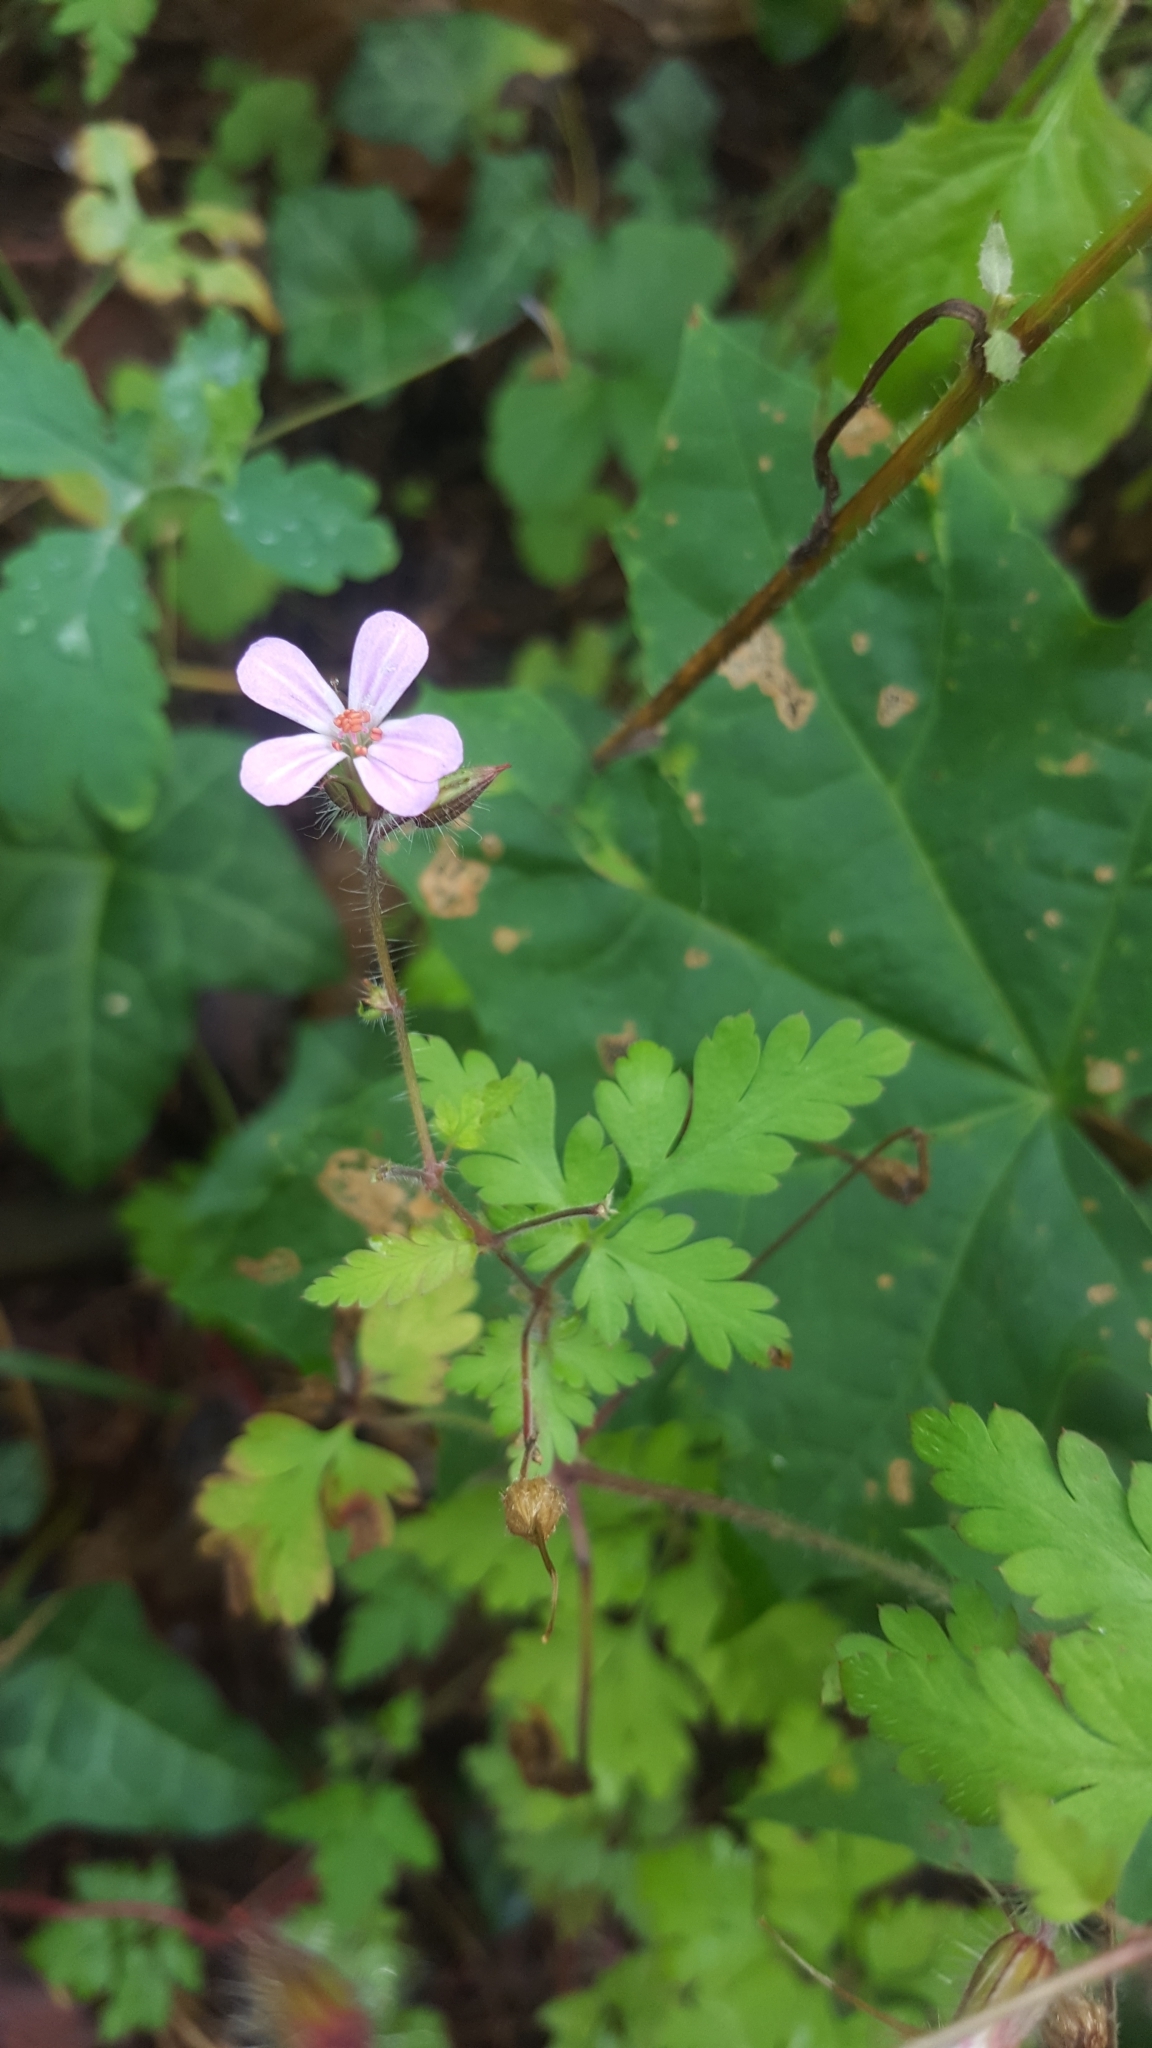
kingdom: Plantae
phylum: Tracheophyta
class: Magnoliopsida
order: Geraniales
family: Geraniaceae
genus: Geranium
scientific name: Geranium robertianum
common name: Herb-robert
